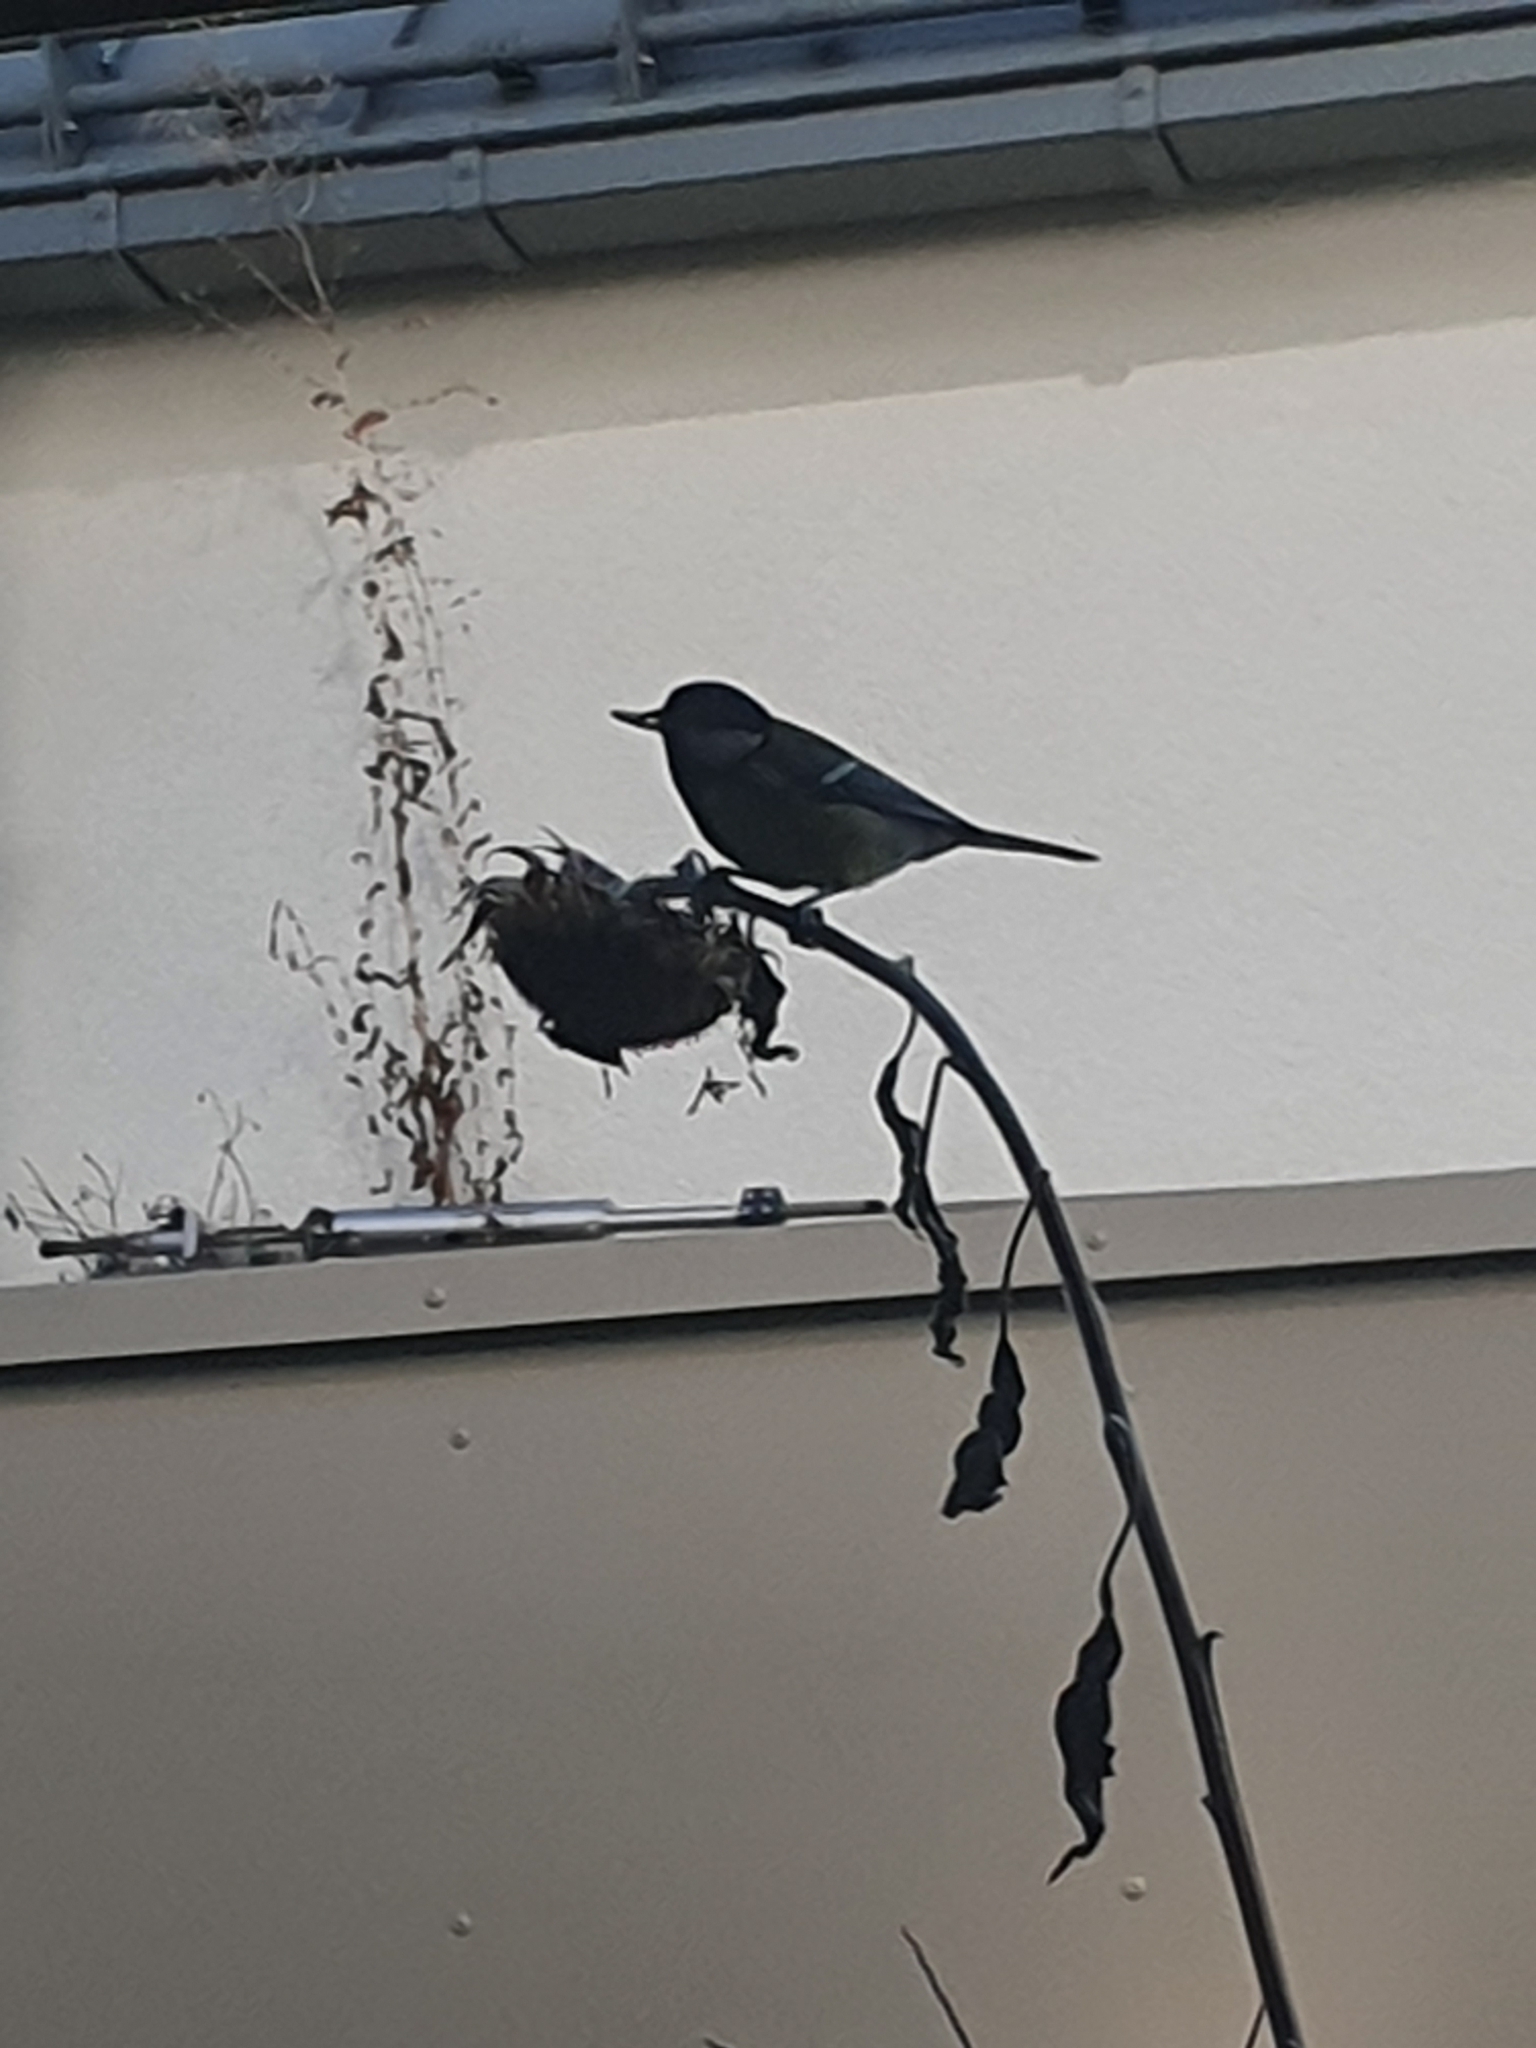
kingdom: Animalia
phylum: Chordata
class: Aves
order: Passeriformes
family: Paridae
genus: Parus
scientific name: Parus major
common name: Great tit
